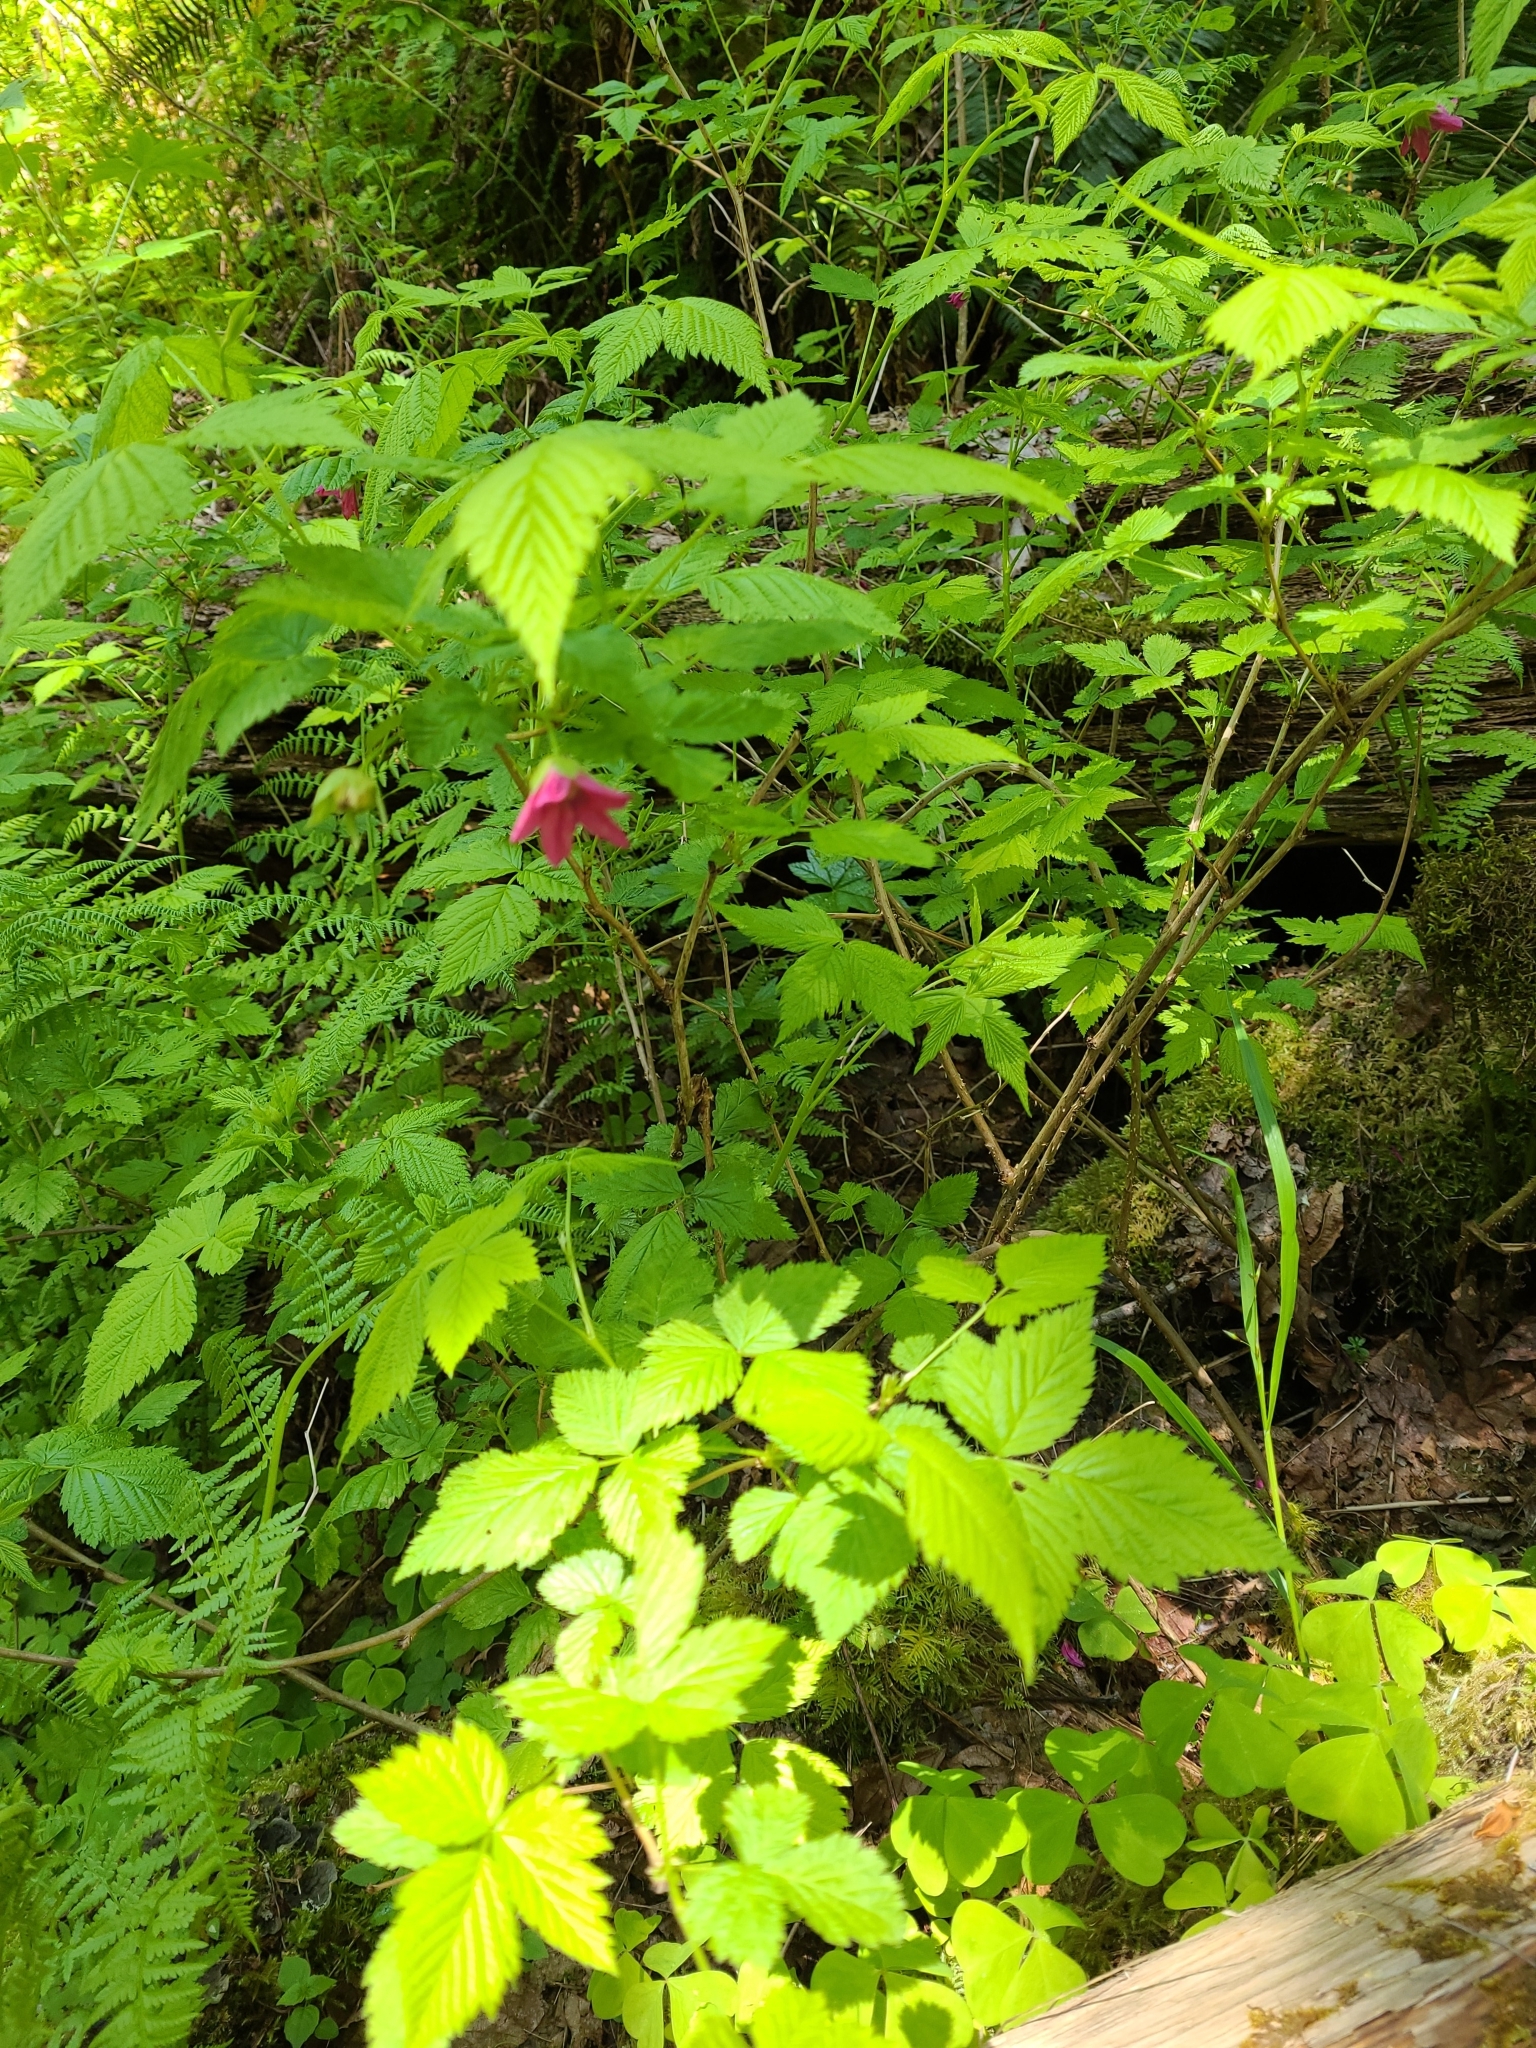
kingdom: Plantae
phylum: Tracheophyta
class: Magnoliopsida
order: Rosales
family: Rosaceae
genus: Rubus
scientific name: Rubus spectabilis
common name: Salmonberry
